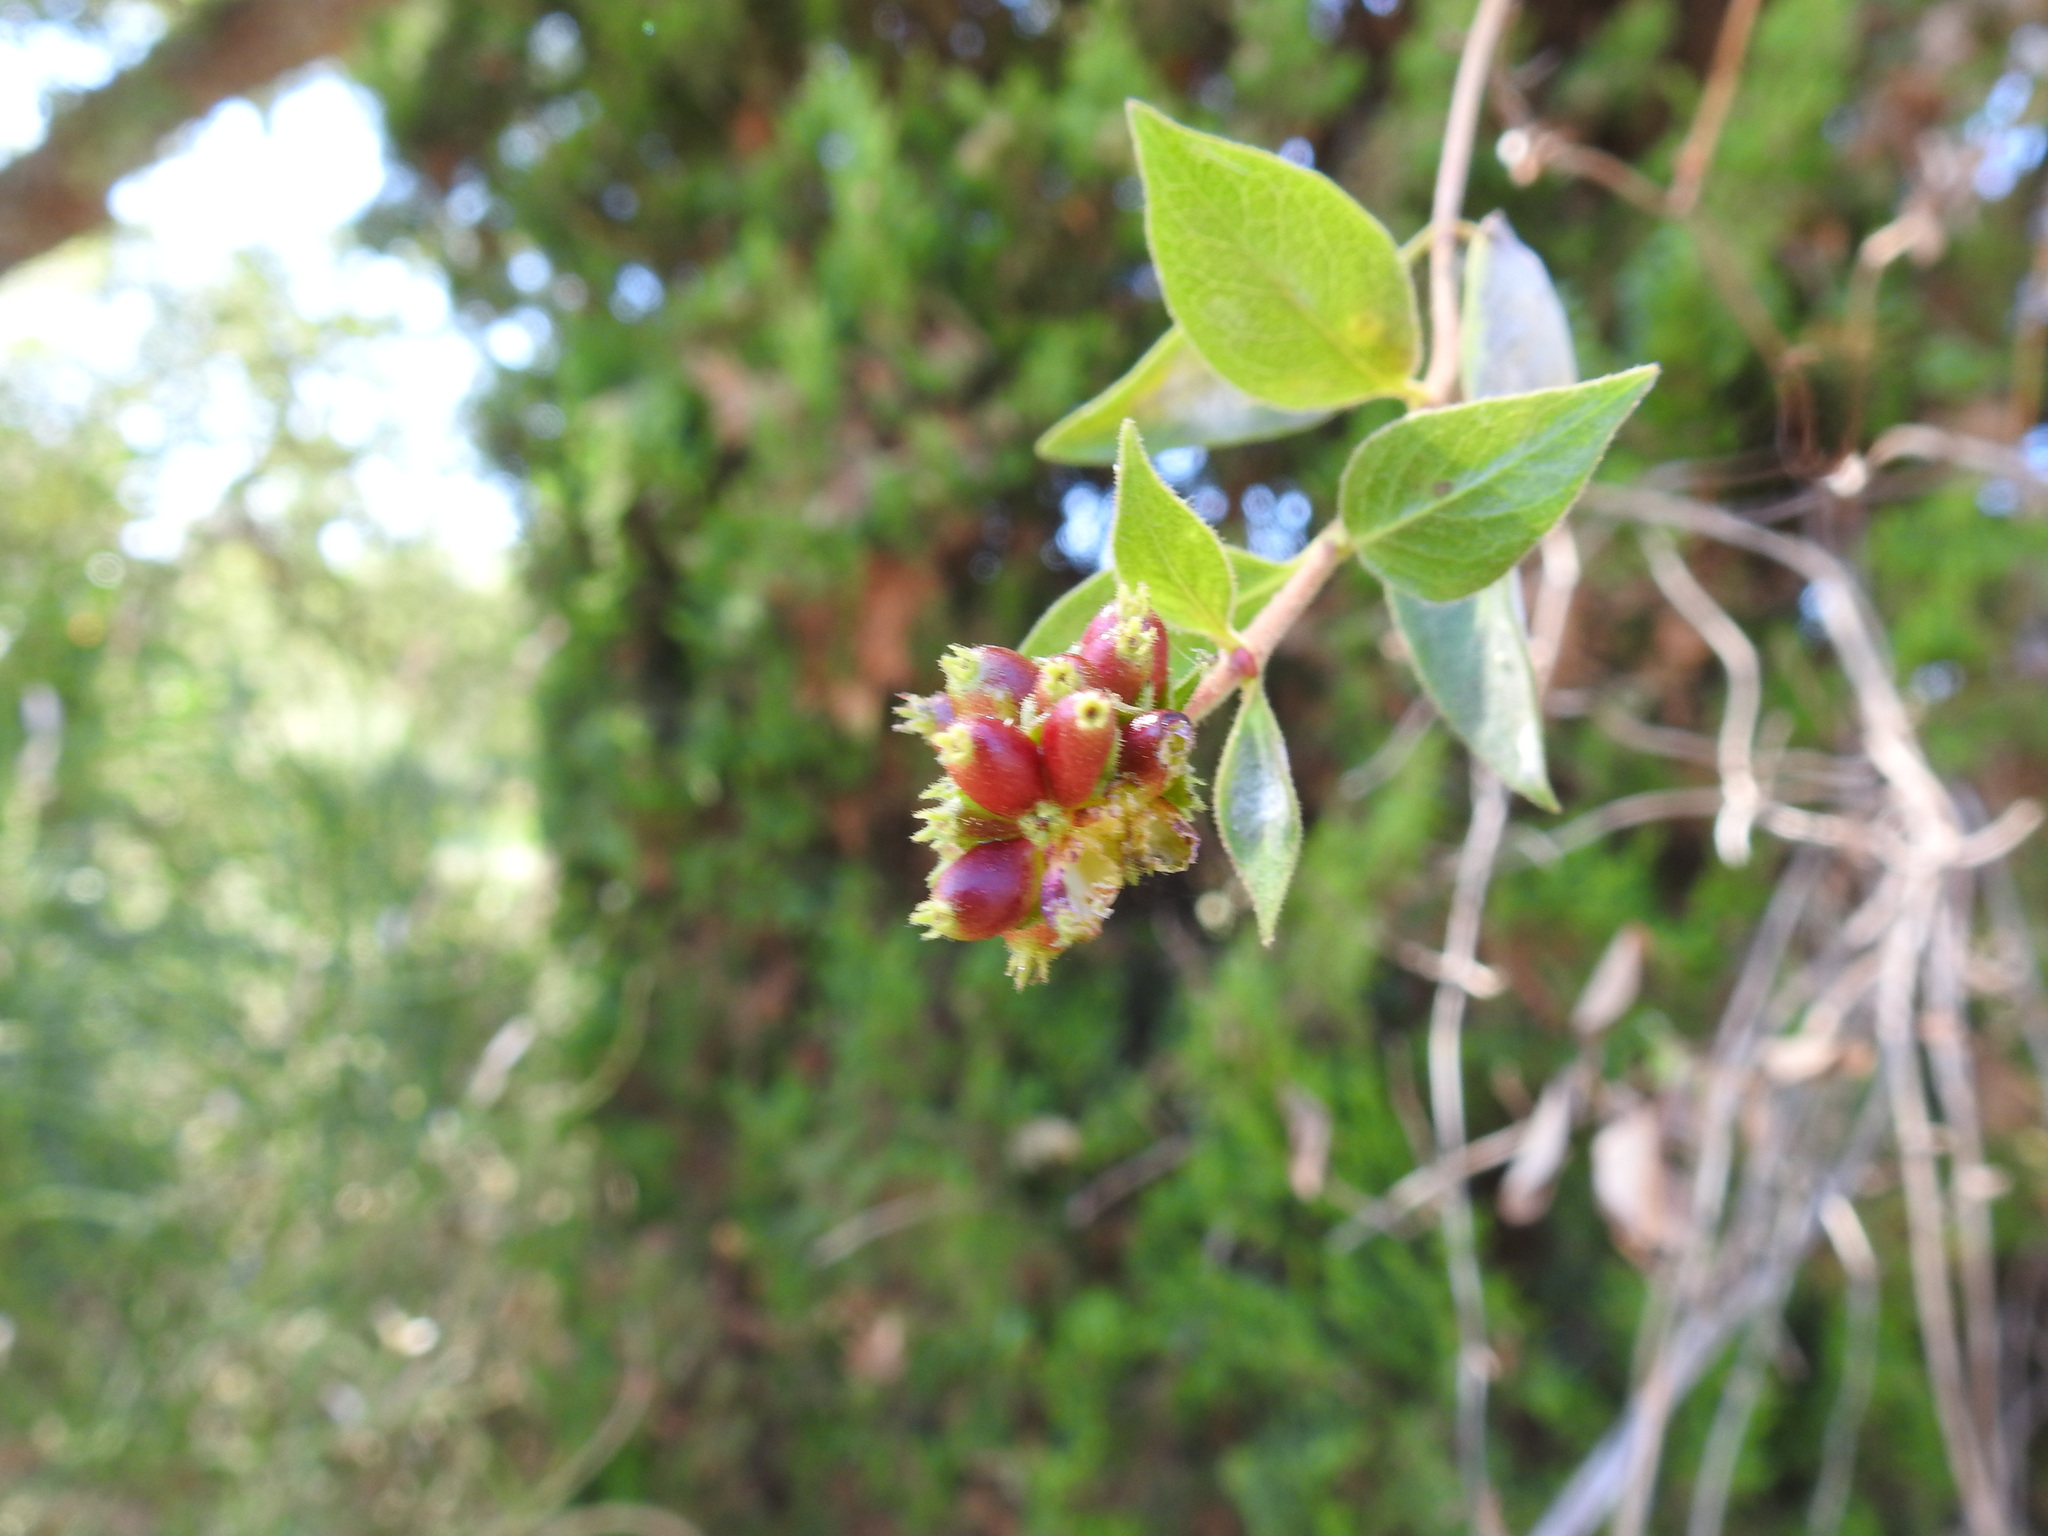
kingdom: Plantae
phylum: Tracheophyta
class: Magnoliopsida
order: Dipsacales
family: Caprifoliaceae
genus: Lonicera
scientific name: Lonicera periclymenum
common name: European honeysuckle
